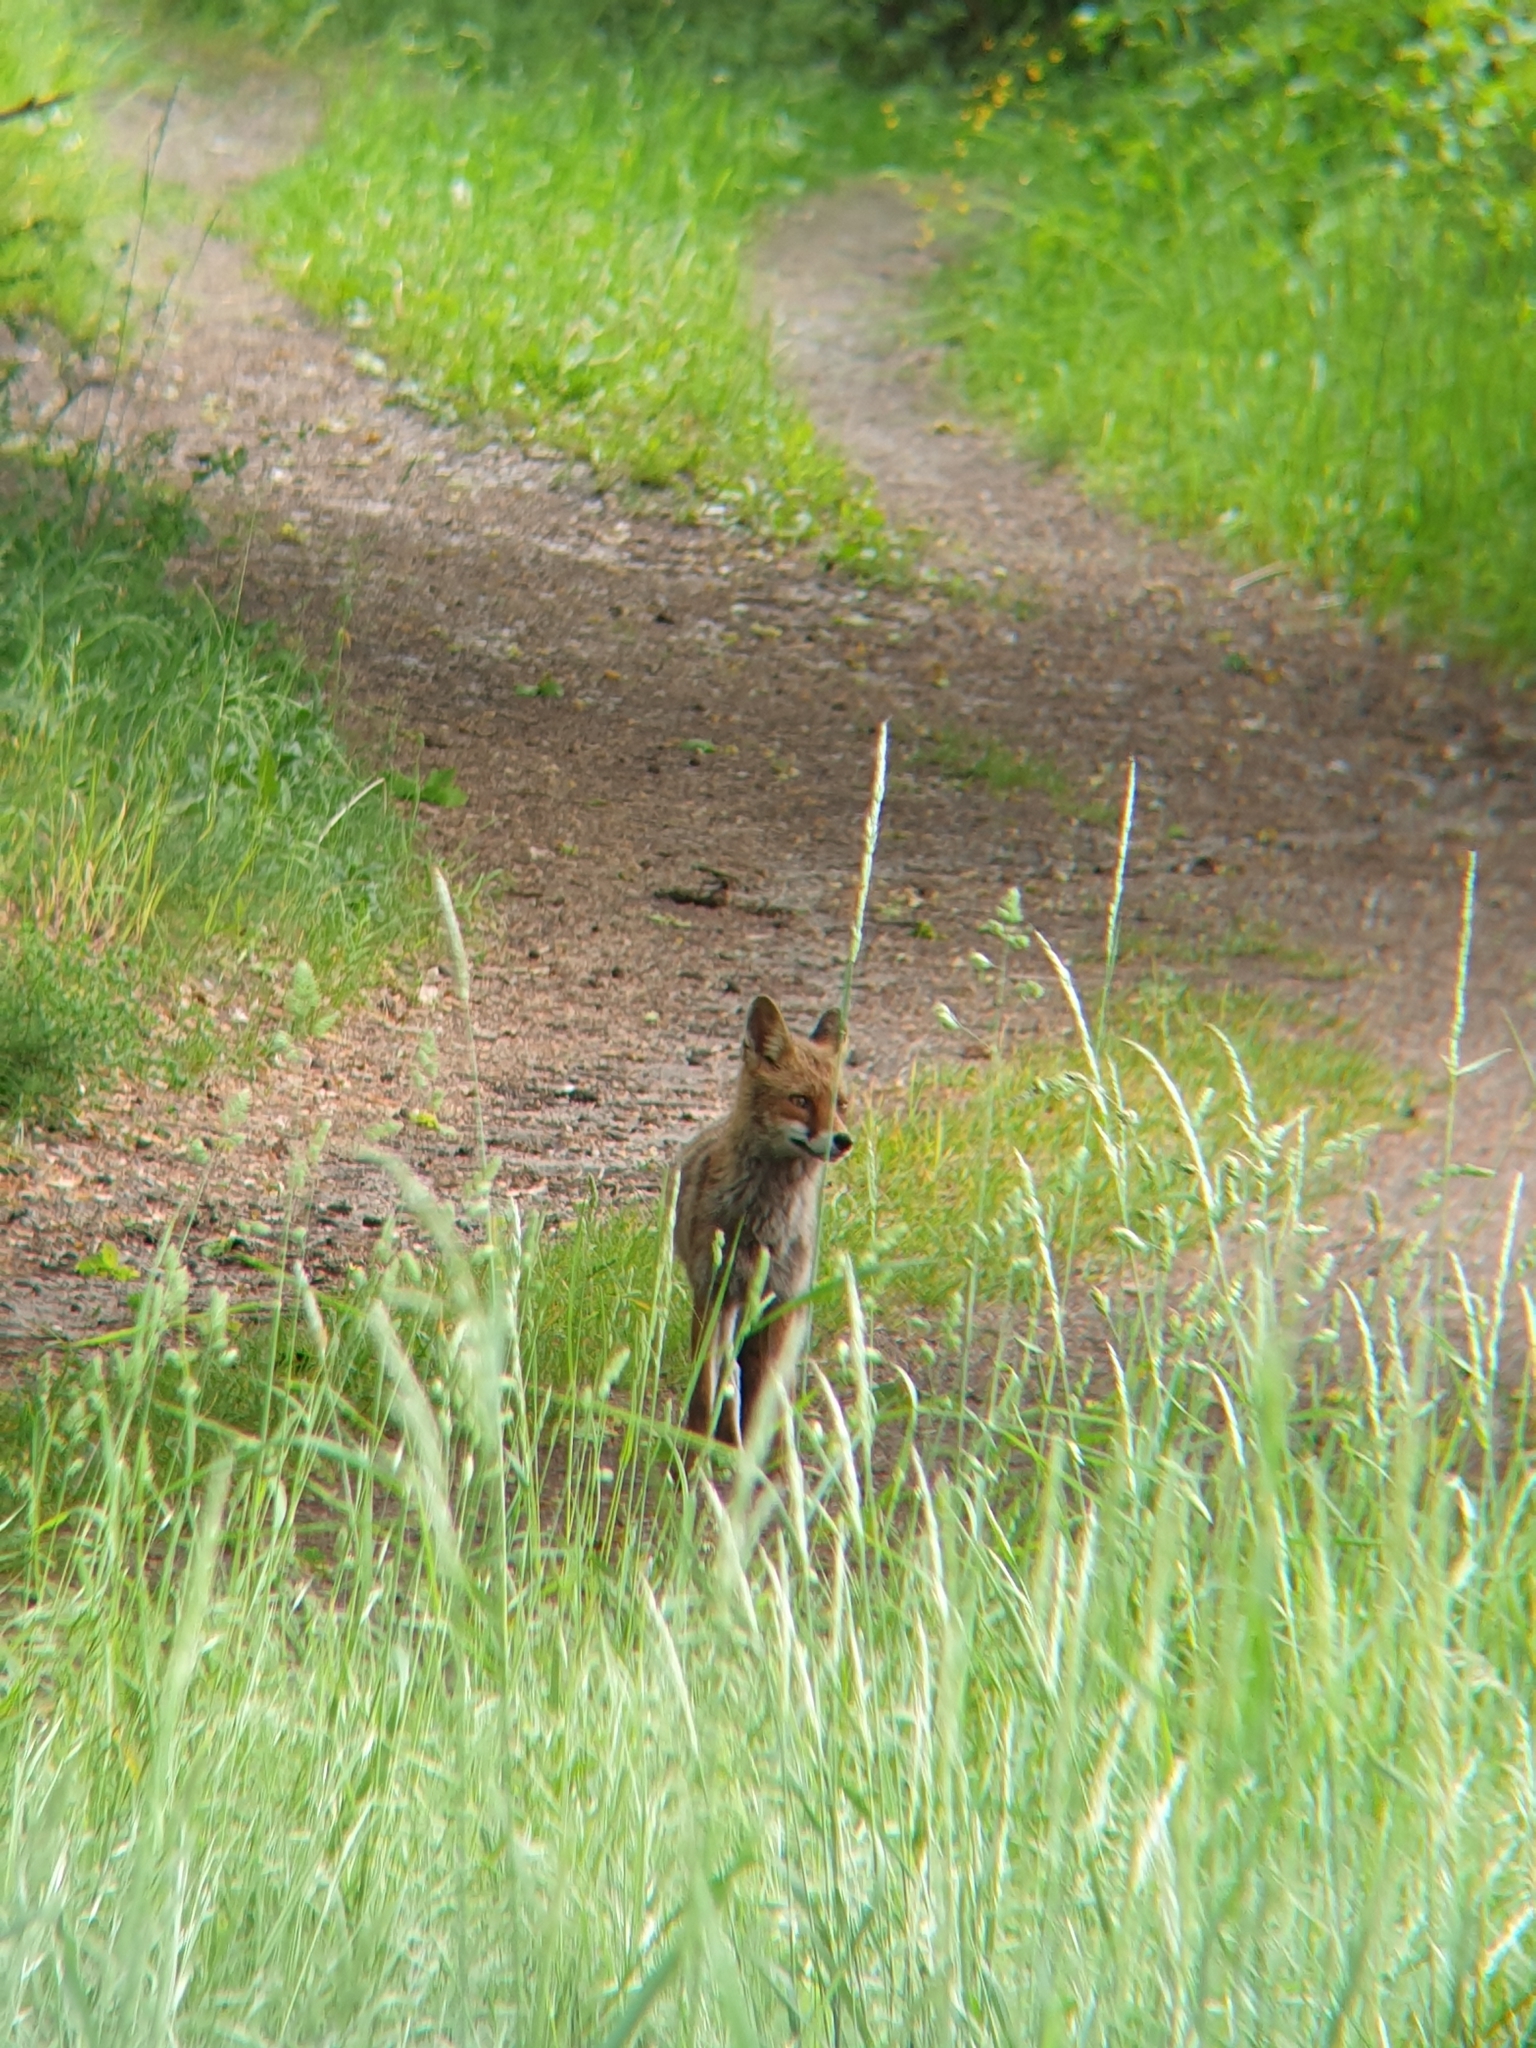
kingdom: Animalia
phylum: Chordata
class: Mammalia
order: Carnivora
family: Canidae
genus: Vulpes
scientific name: Vulpes vulpes
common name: Red fox
